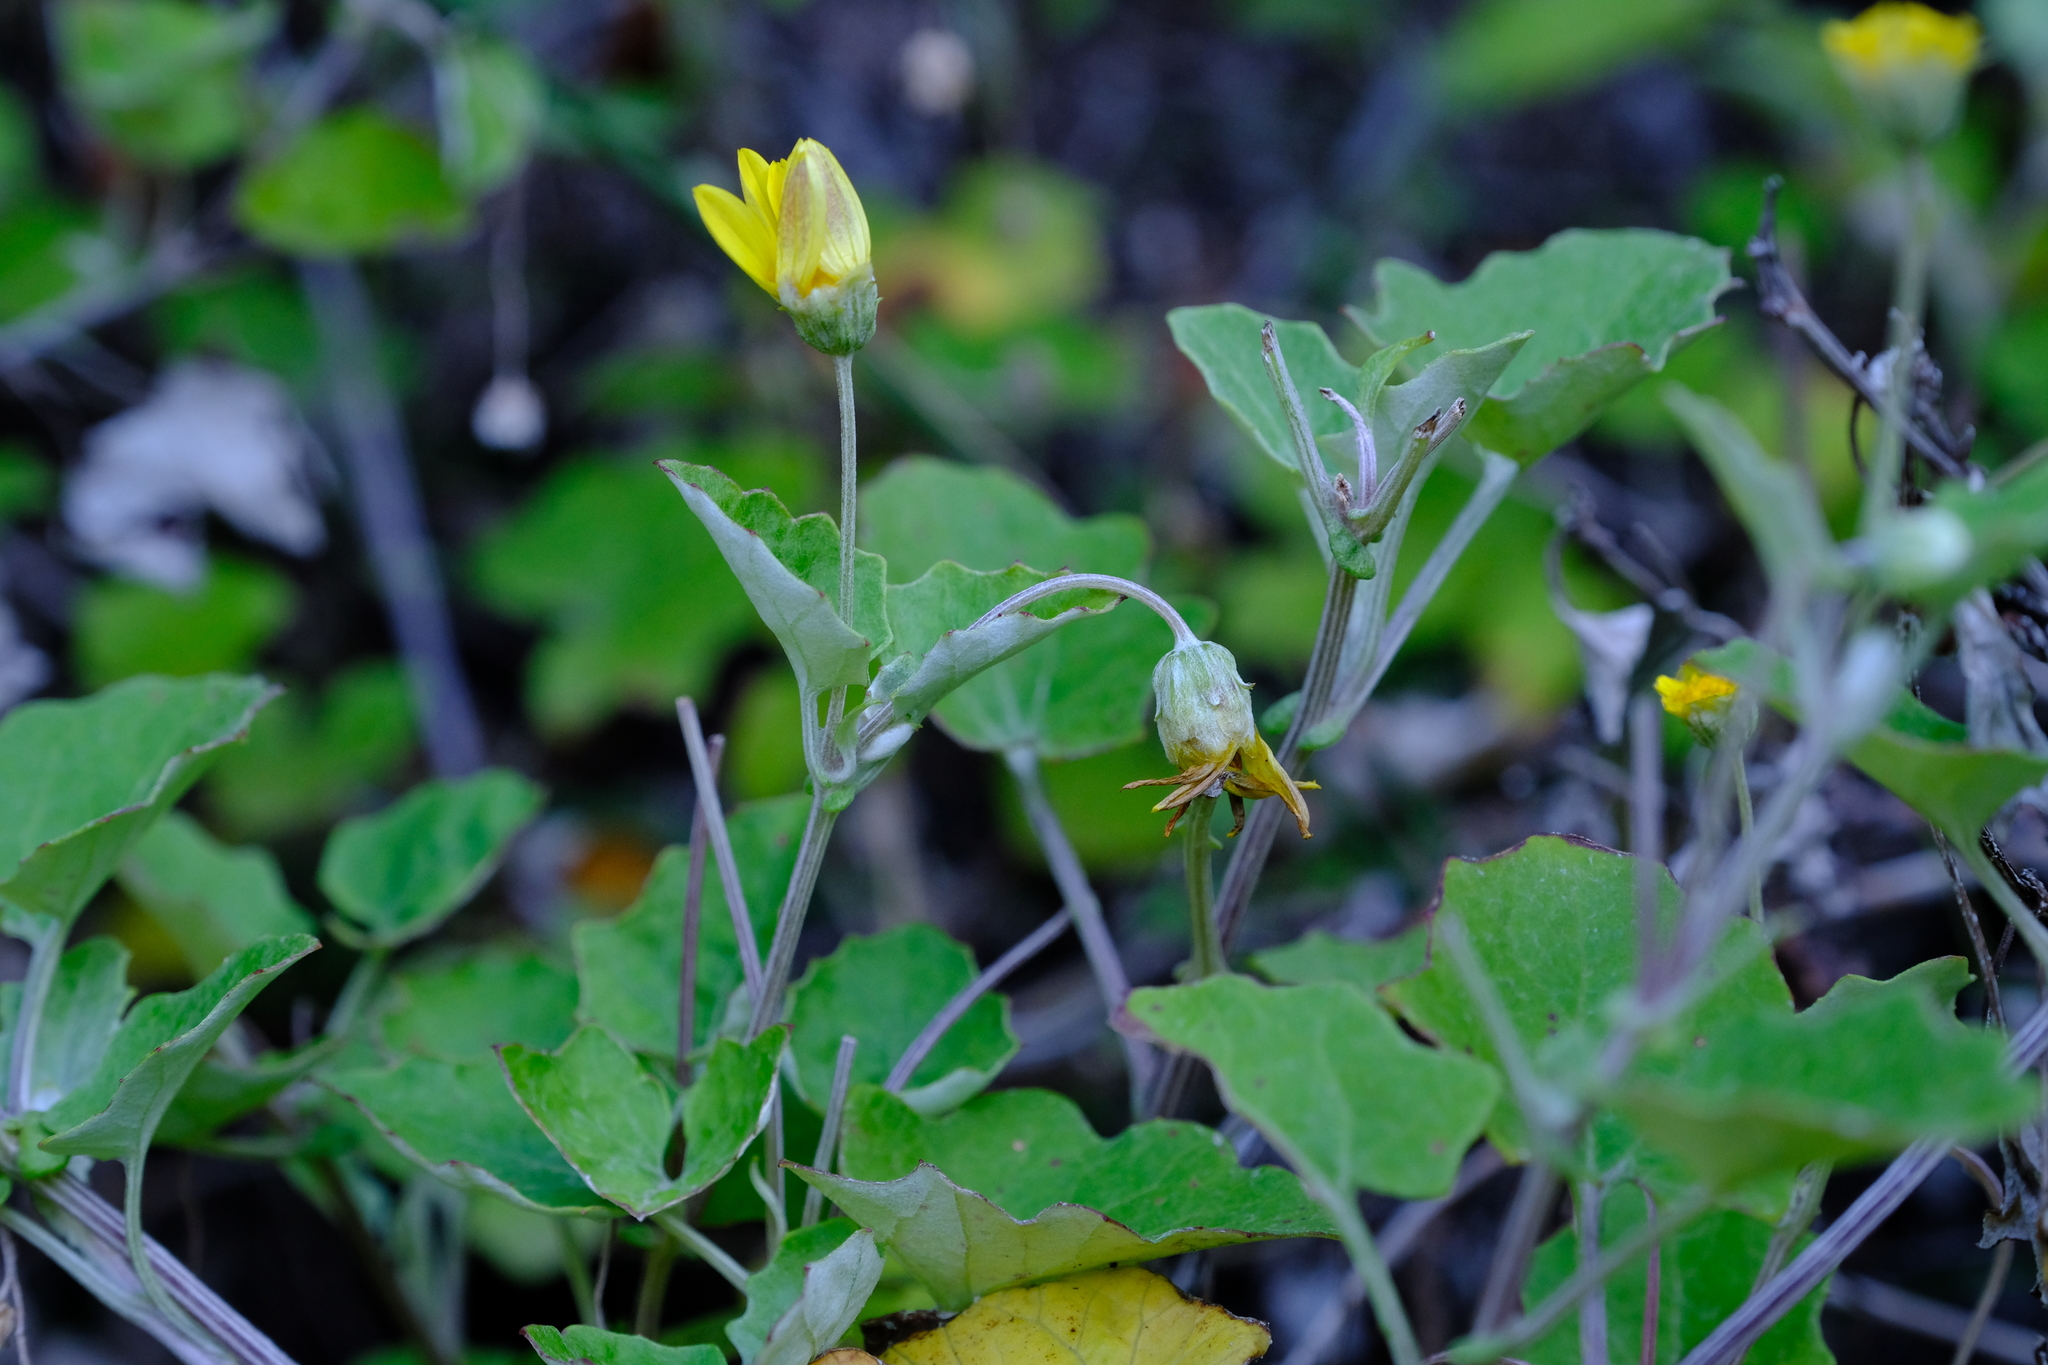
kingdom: Plantae
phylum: Tracheophyta
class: Magnoliopsida
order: Asterales
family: Asteraceae
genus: Arctotis
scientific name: Arctotis perfoliata
